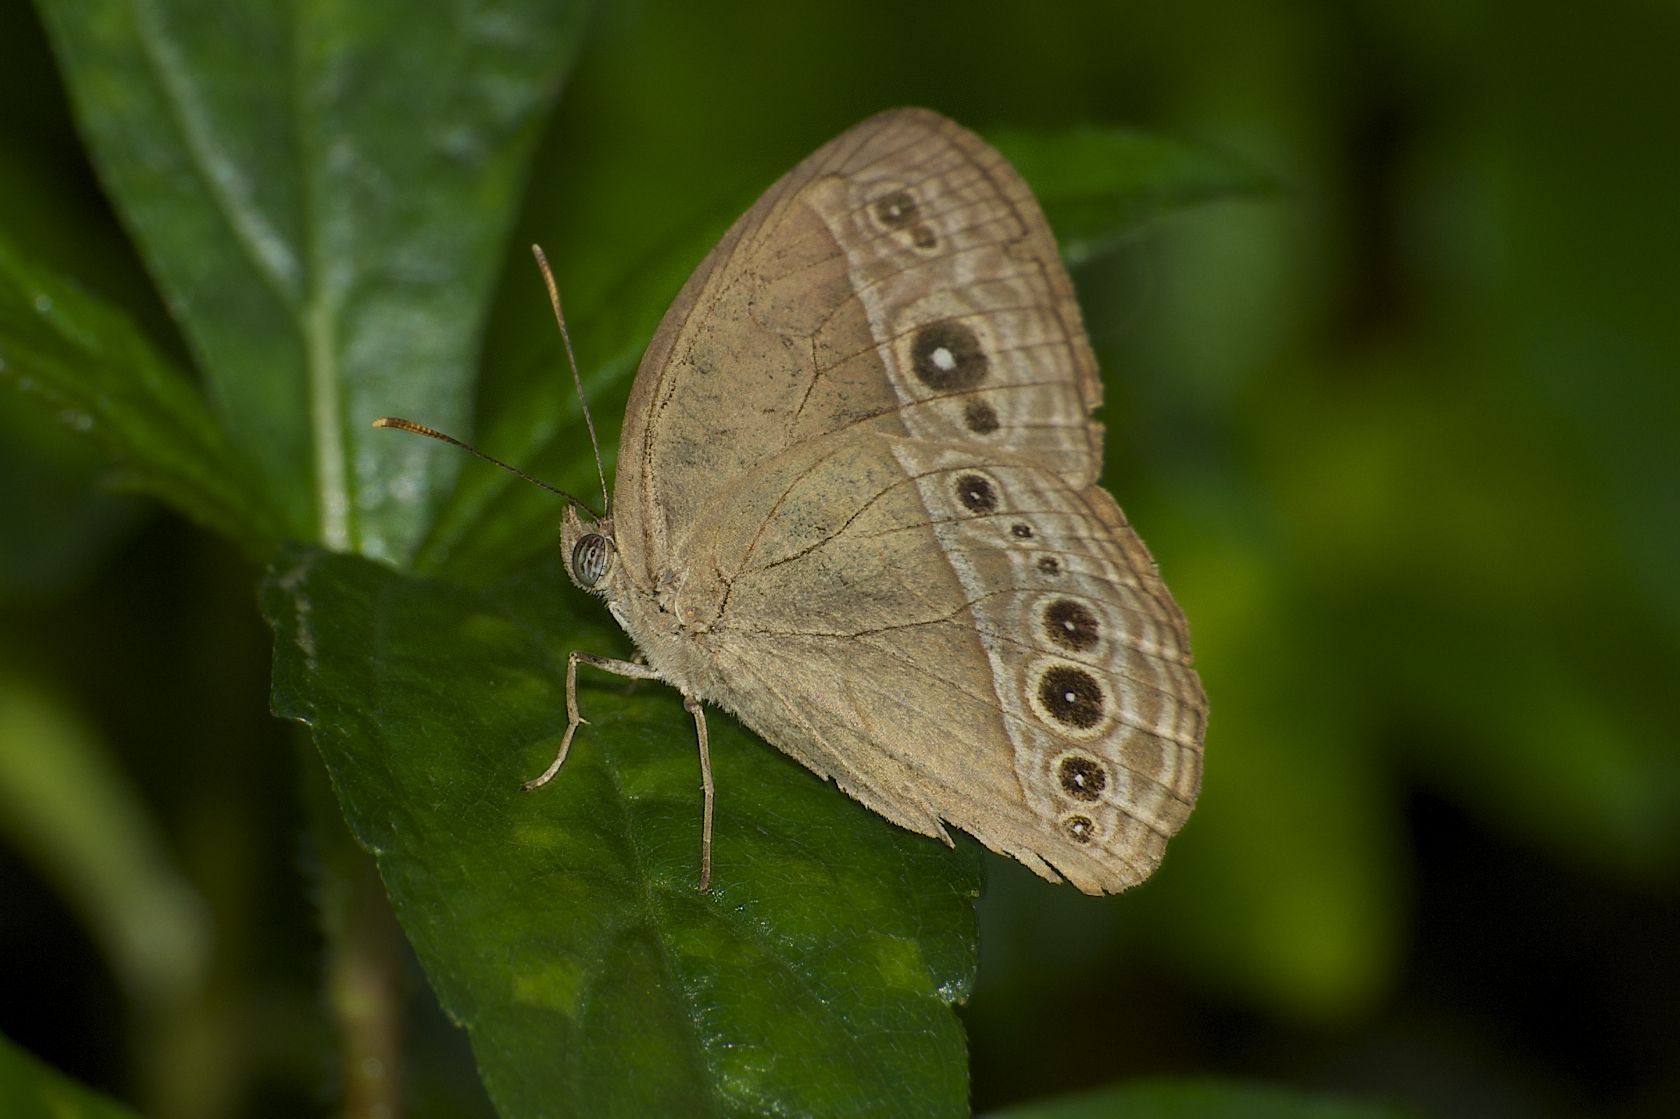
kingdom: Animalia
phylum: Arthropoda
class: Insecta
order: Lepidoptera
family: Nymphalidae
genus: Mycalesis
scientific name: Mycalesis mineus
